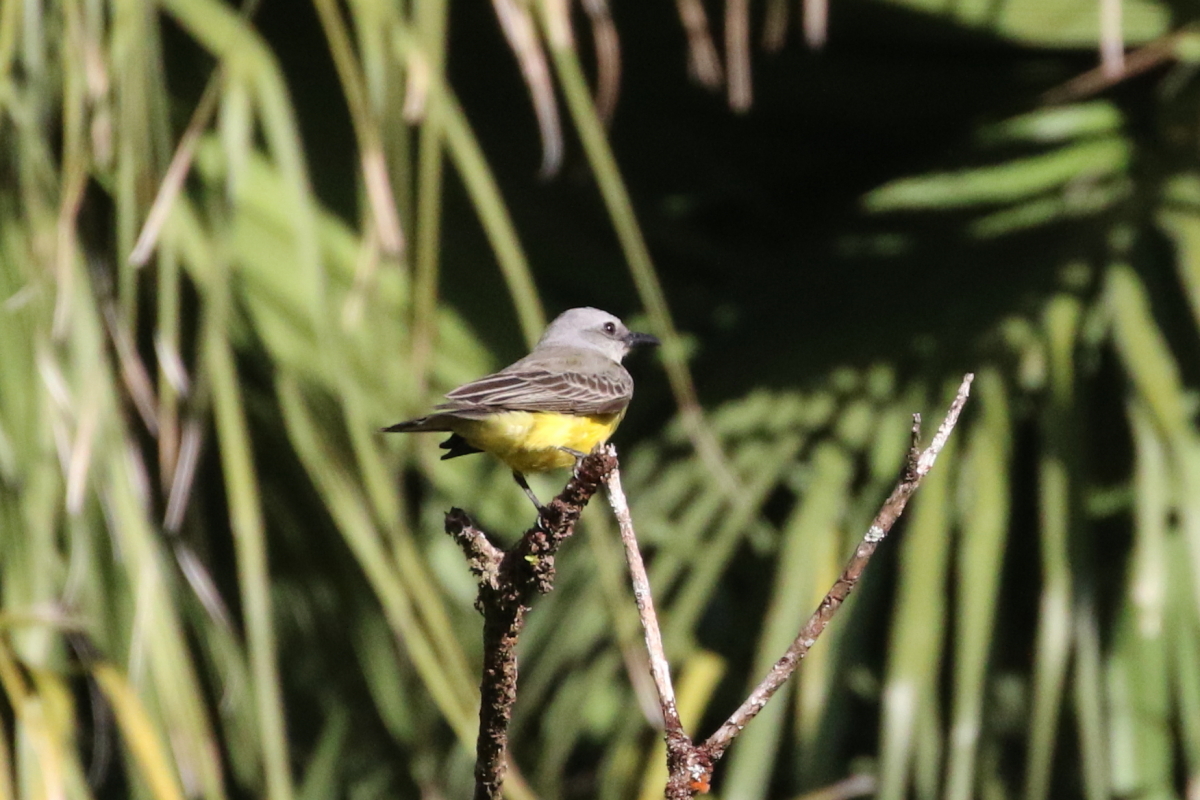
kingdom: Animalia
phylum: Chordata
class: Aves
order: Passeriformes
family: Tyrannidae
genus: Tyrannus
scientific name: Tyrannus melancholicus
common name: Tropical kingbird
